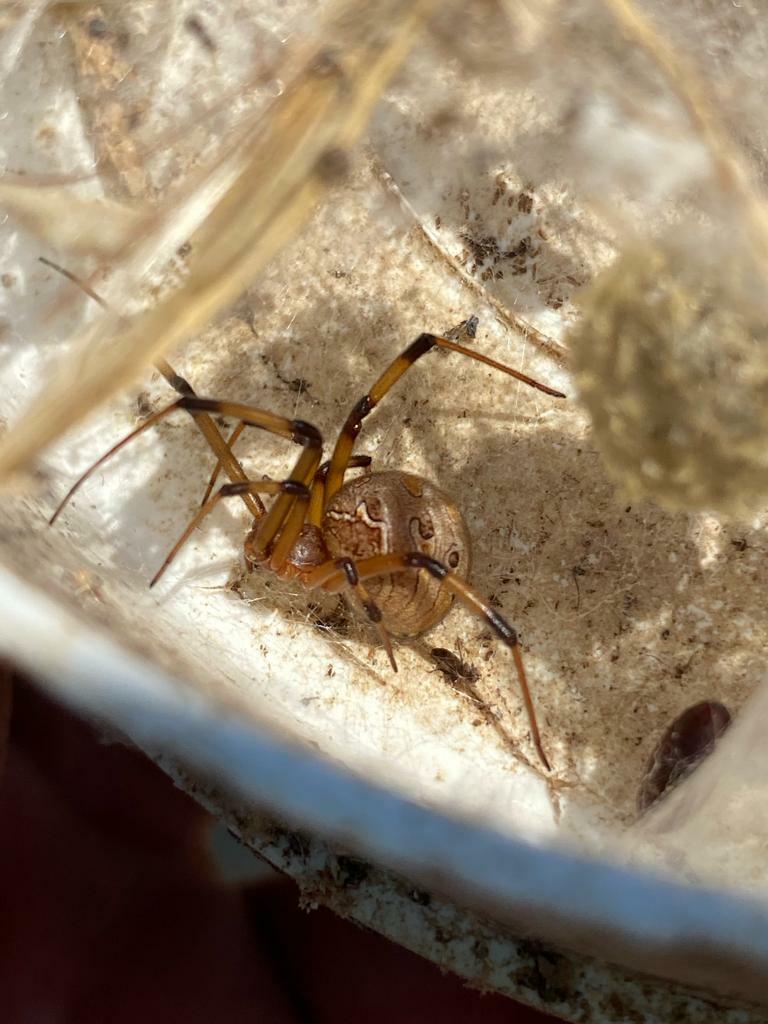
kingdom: Animalia
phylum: Arthropoda
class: Arachnida
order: Araneae
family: Theridiidae
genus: Latrodectus
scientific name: Latrodectus geometricus
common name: Brown widow spider
